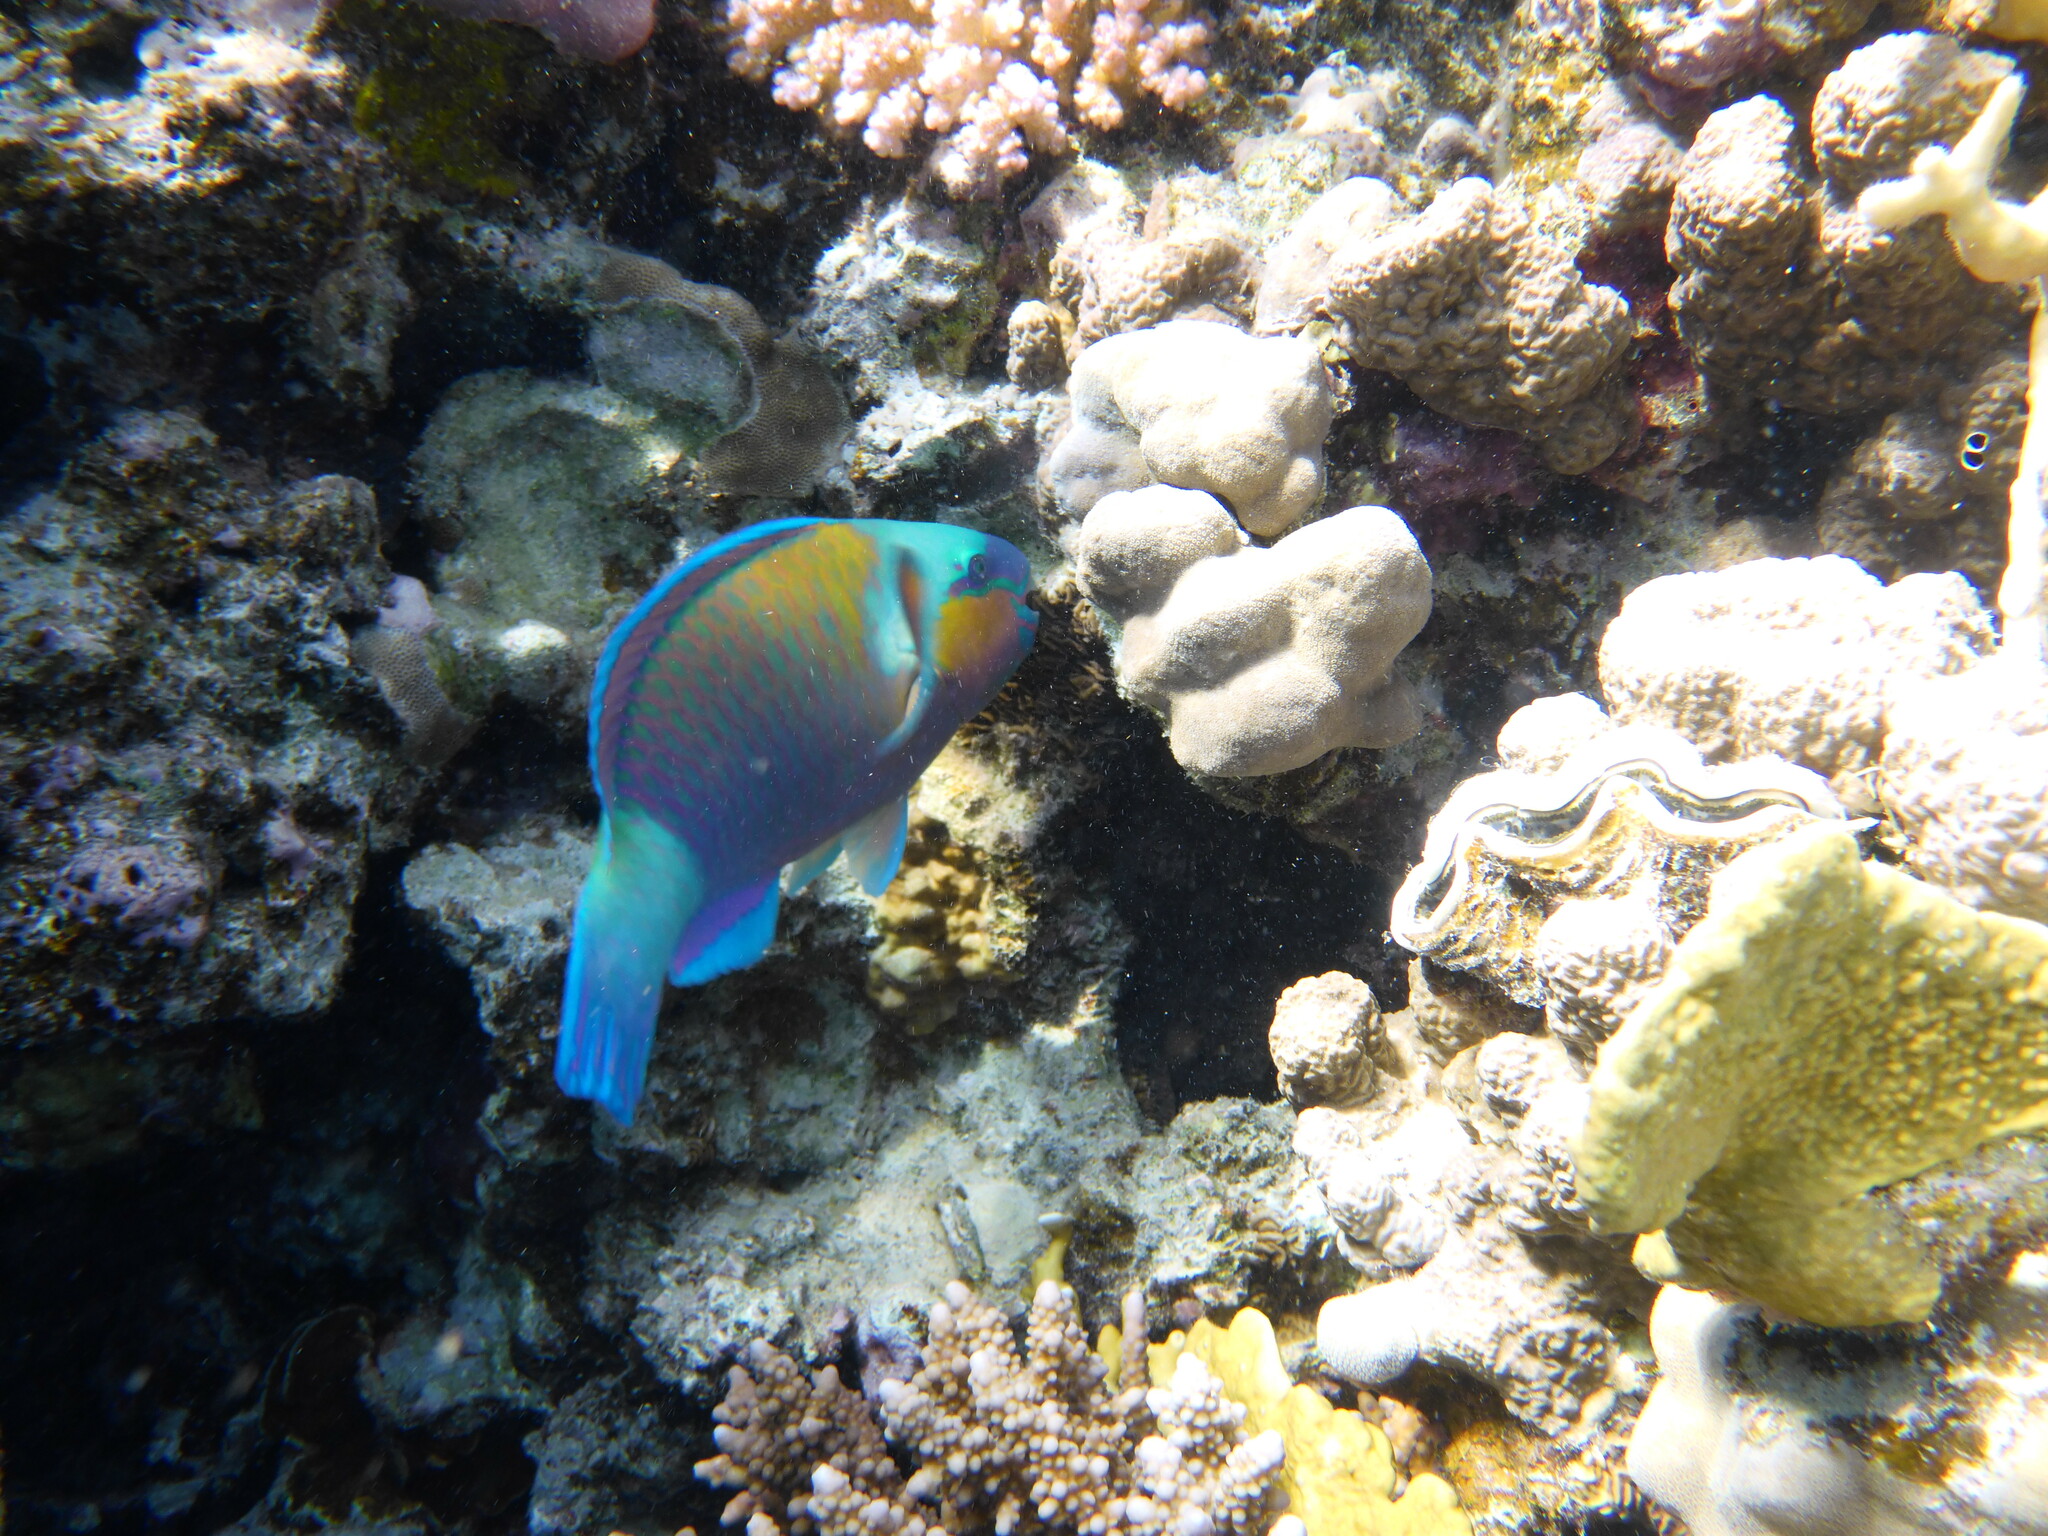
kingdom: Animalia
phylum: Chordata
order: Perciformes
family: Scaridae
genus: Chlorurus
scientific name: Chlorurus sordidus
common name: Bullethead parrotfish
